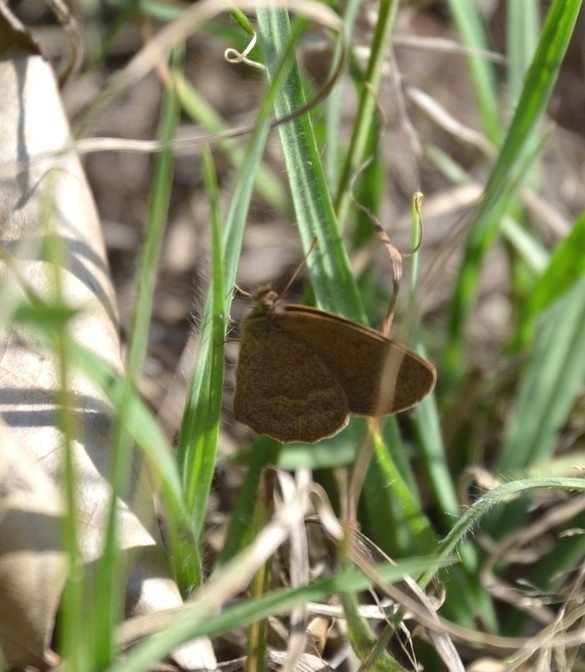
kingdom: Animalia
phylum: Arthropoda
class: Insecta
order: Lepidoptera
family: Nymphalidae
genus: Yphthimoides
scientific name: Yphthimoides celmis
